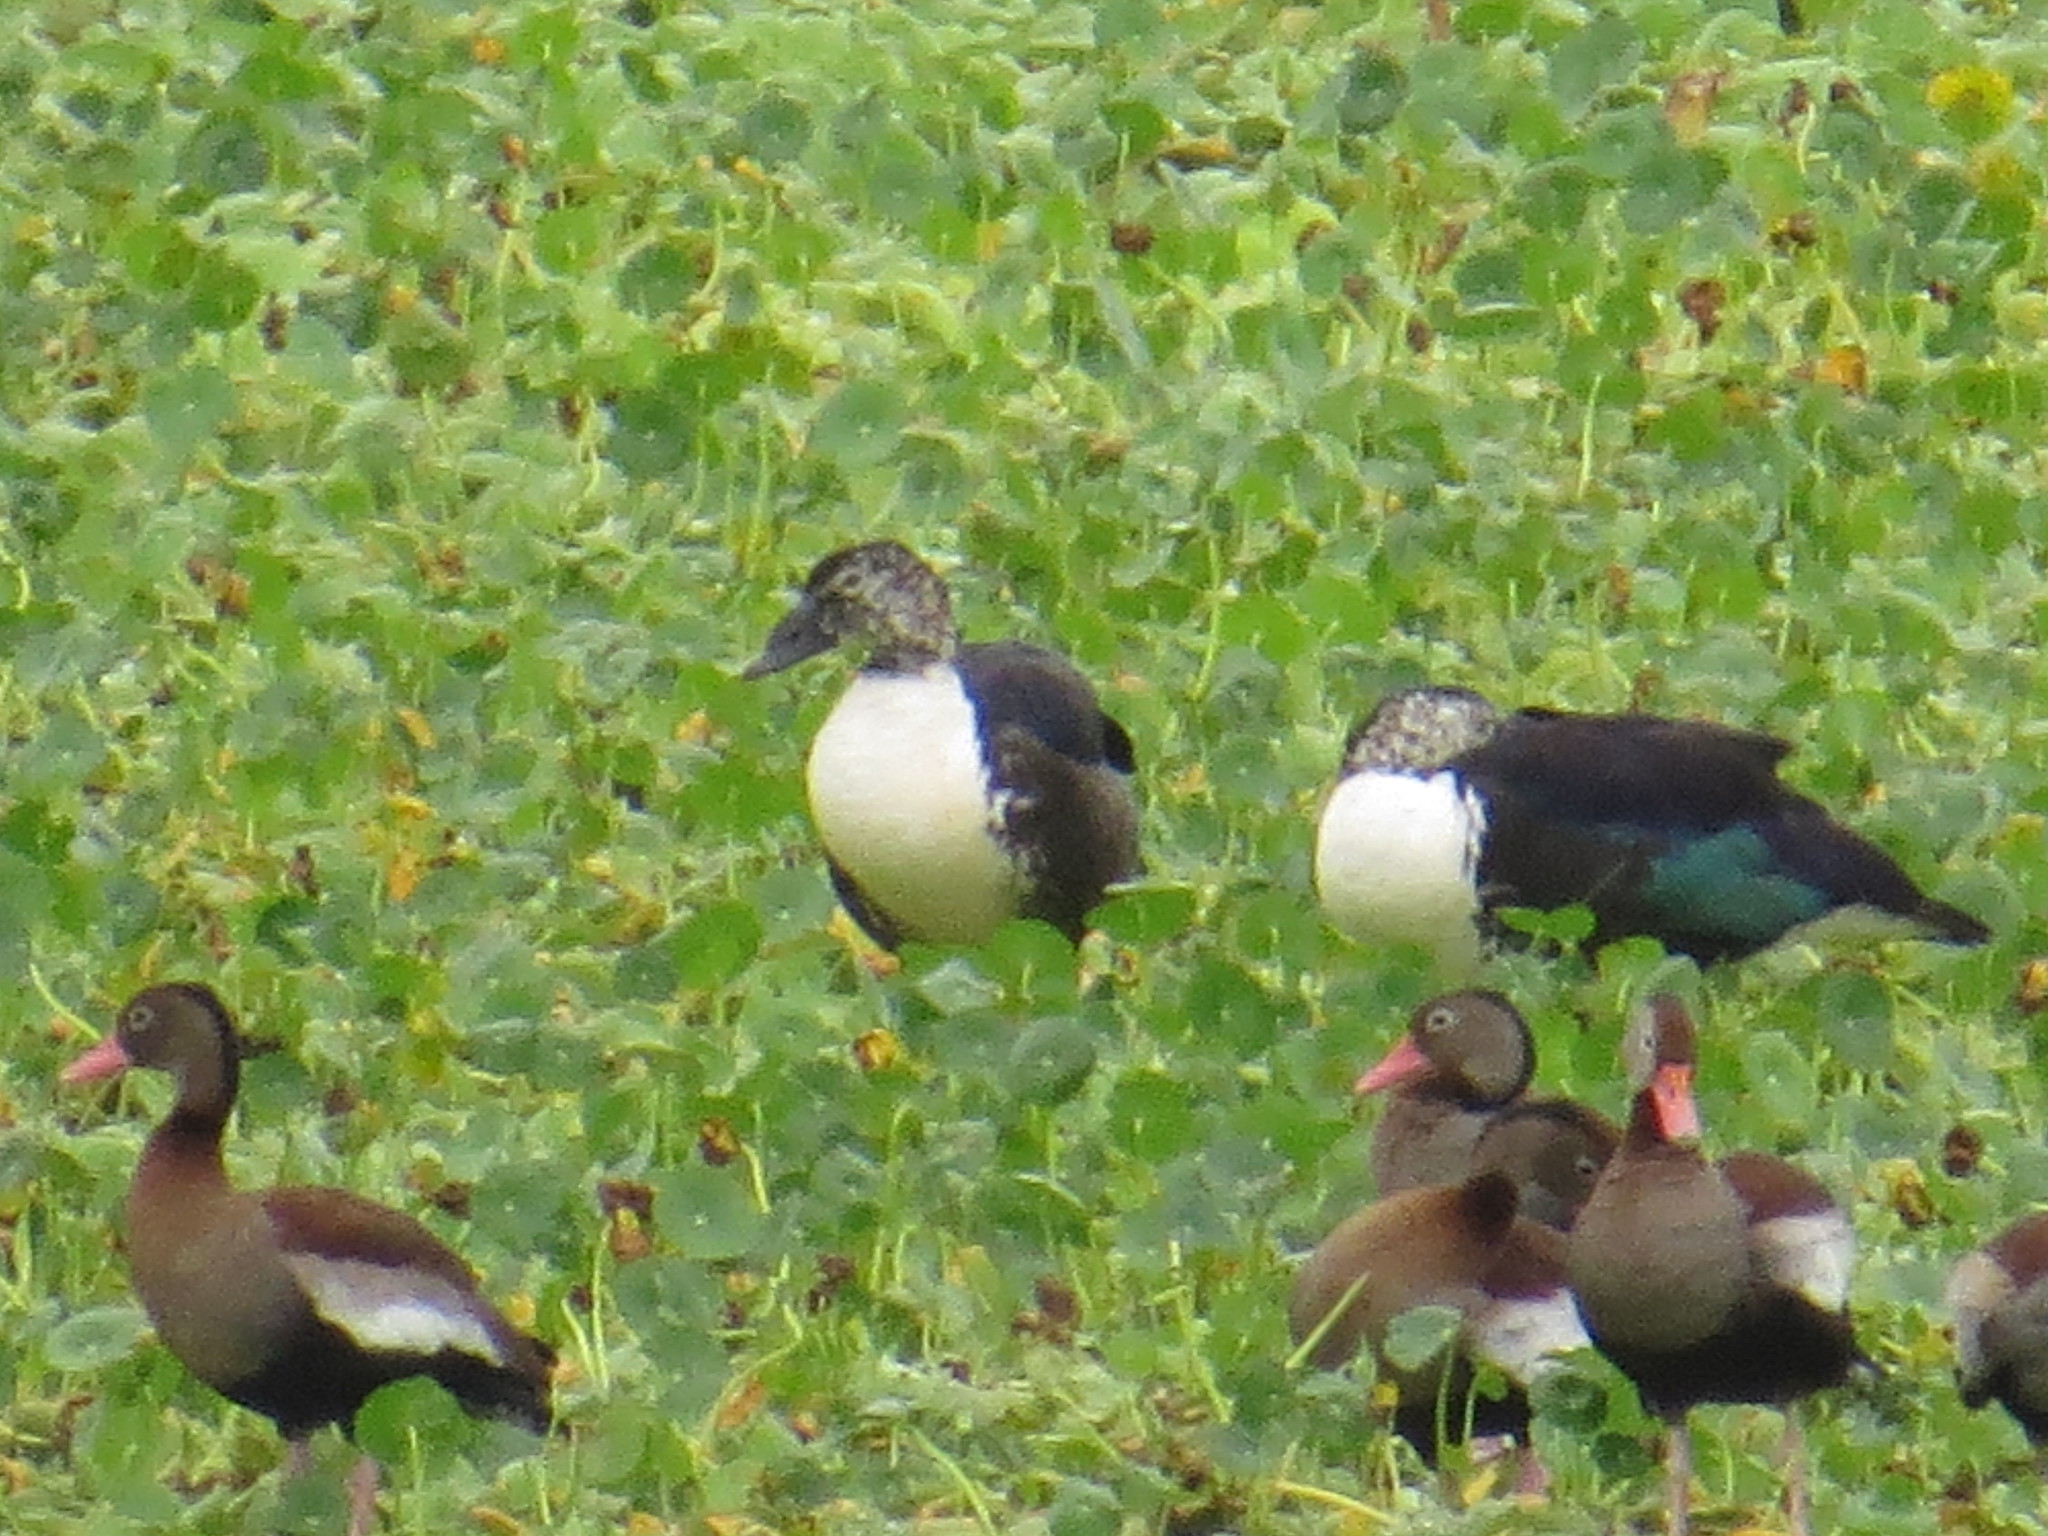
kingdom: Animalia
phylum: Chordata
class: Aves
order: Anseriformes
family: Anatidae
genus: Sarkidiornis
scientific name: Sarkidiornis sylvicola
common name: Comb duck
